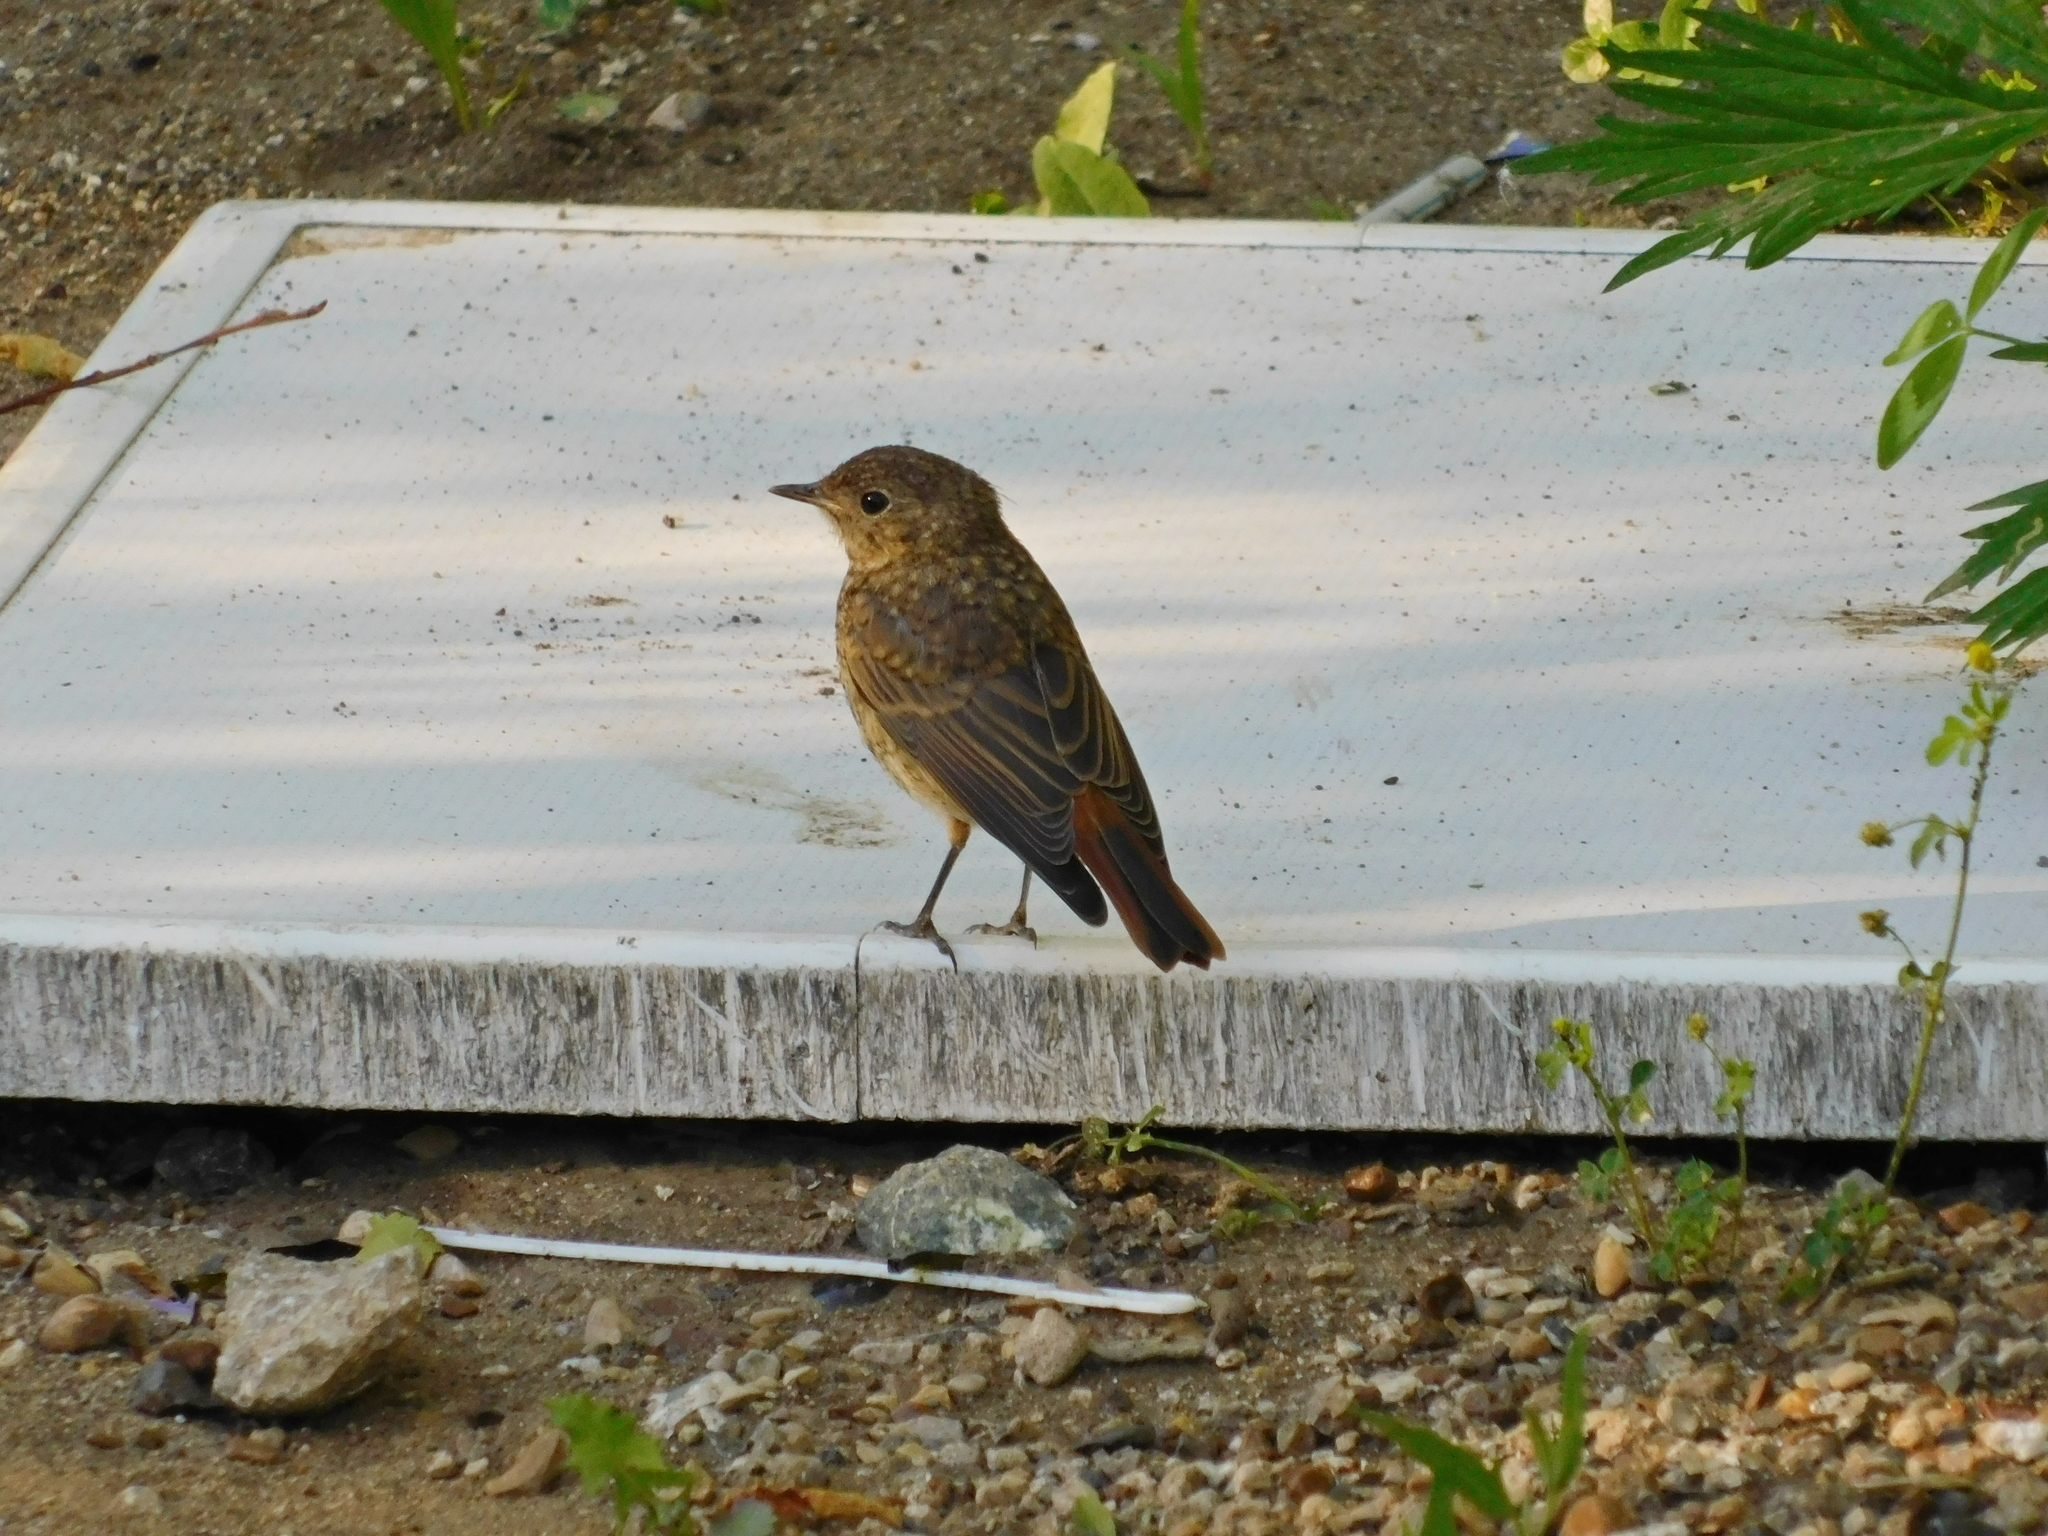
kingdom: Animalia
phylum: Chordata
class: Aves
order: Passeriformes
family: Muscicapidae
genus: Phoenicurus
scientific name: Phoenicurus phoenicurus
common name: Common redstart
